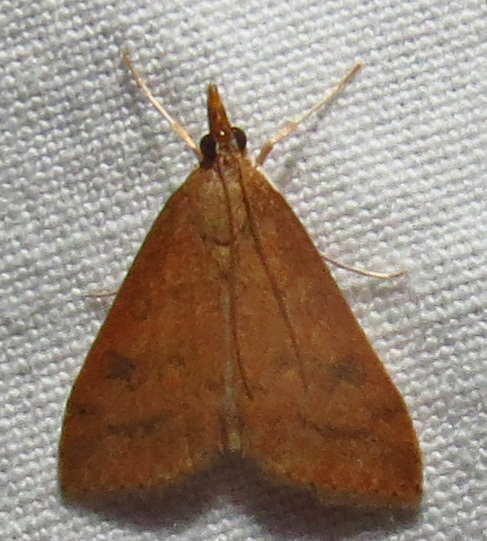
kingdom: Animalia
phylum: Arthropoda
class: Insecta
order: Lepidoptera
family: Crambidae
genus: Udea
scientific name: Udea rubigalis
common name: Celery leaftier moth
